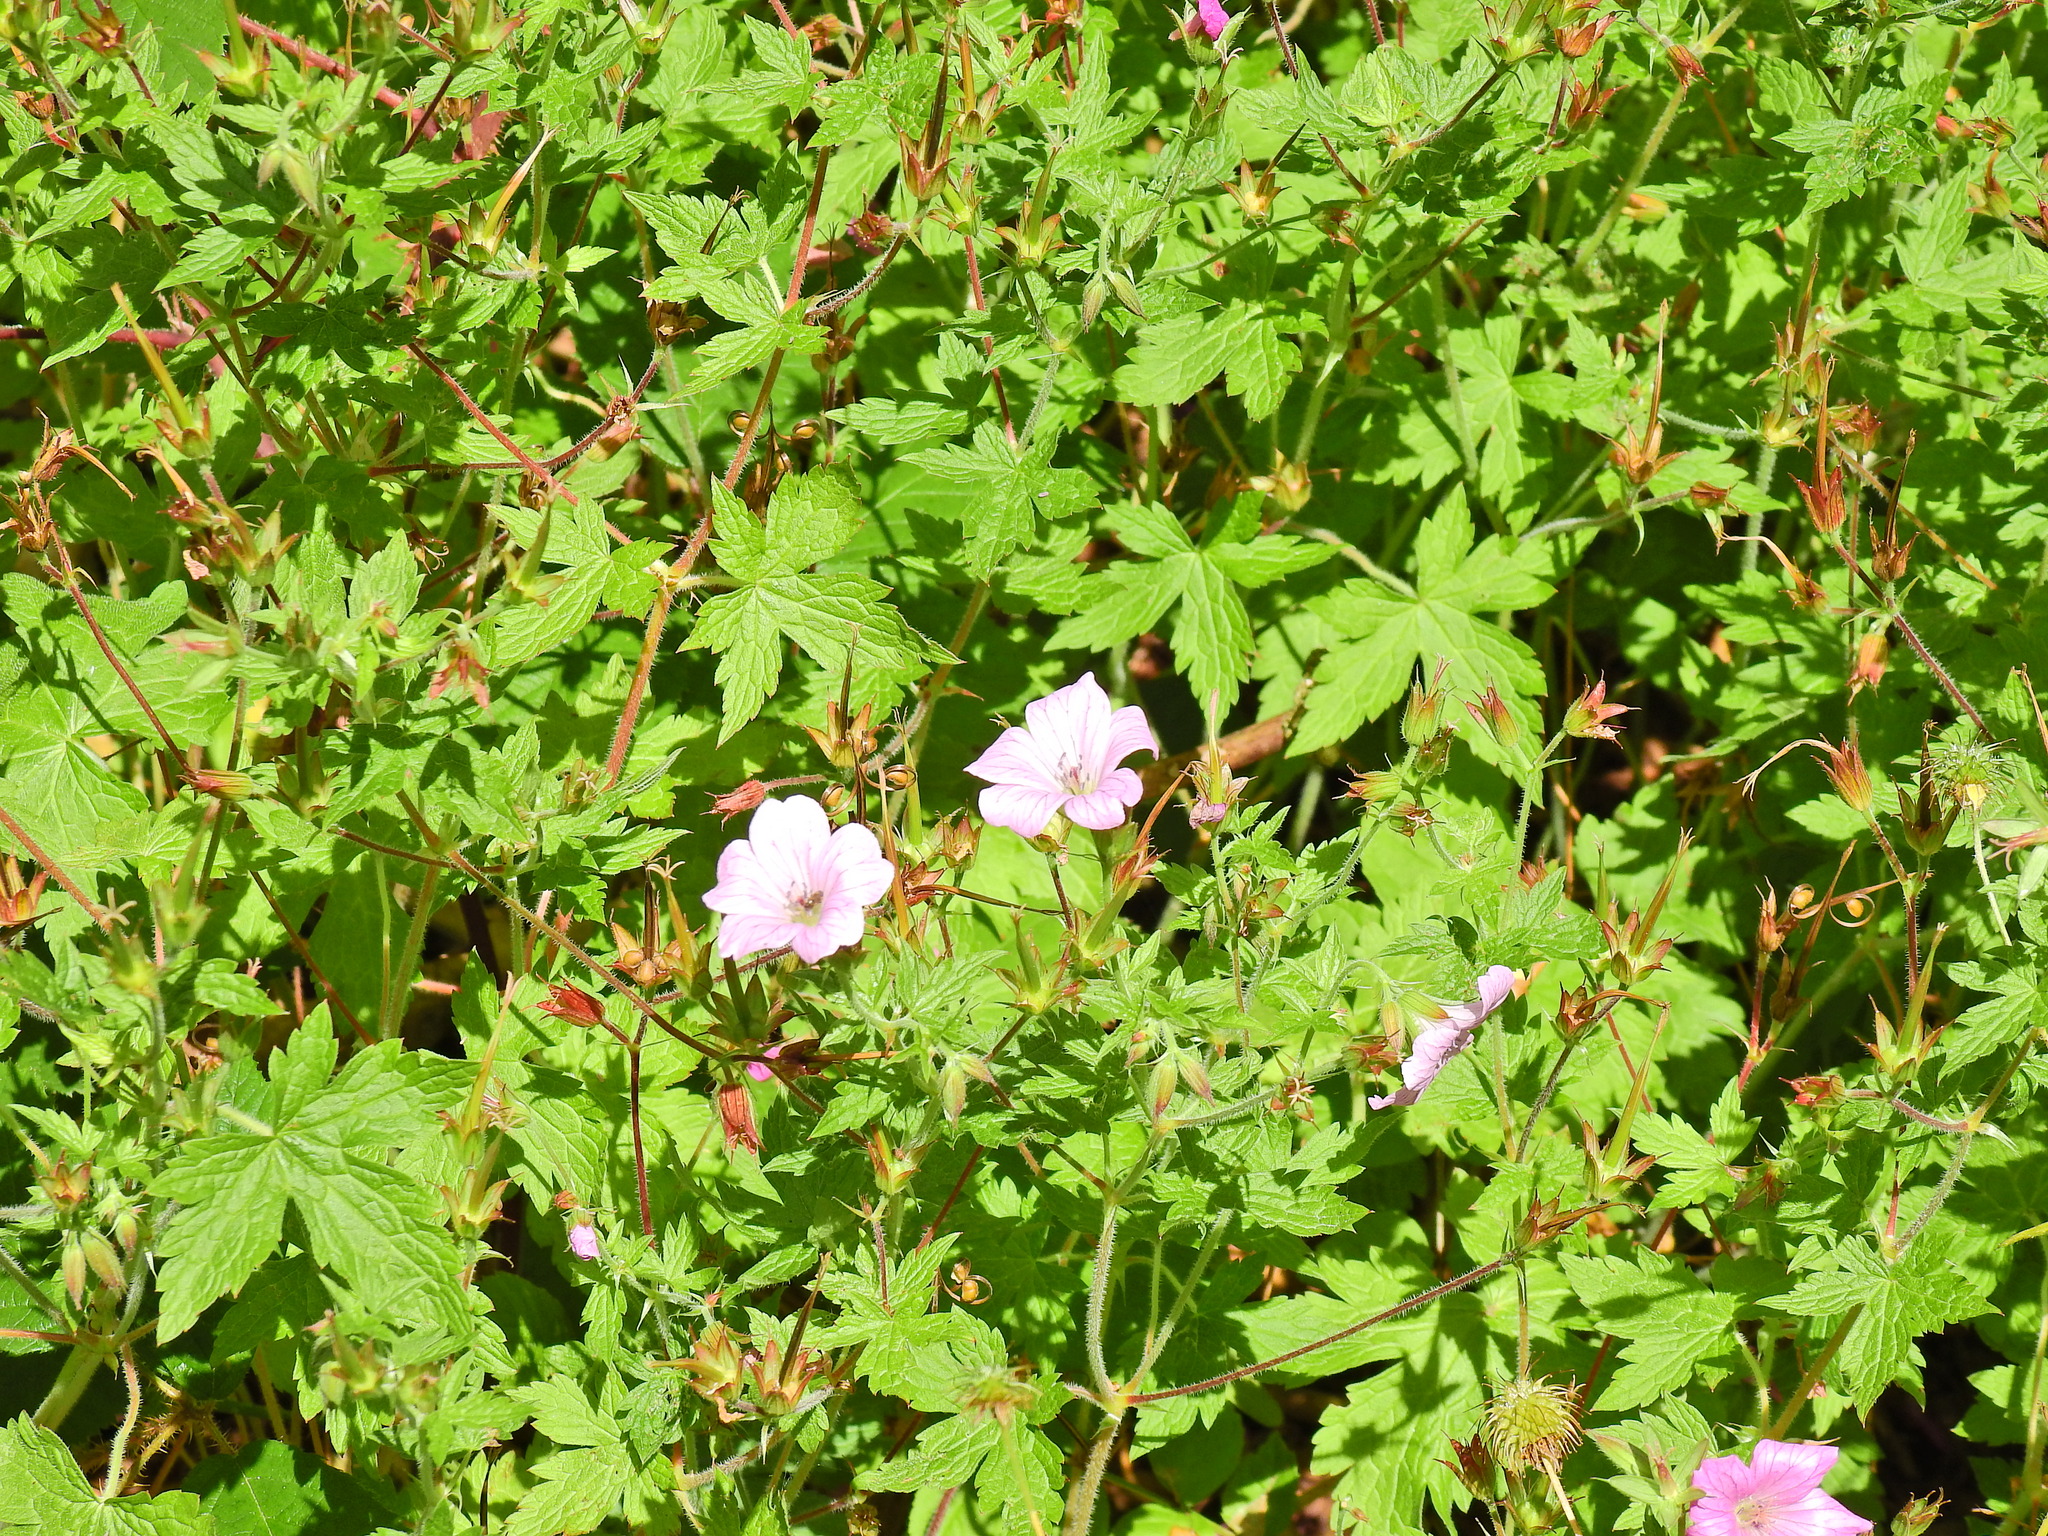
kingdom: Plantae
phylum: Tracheophyta
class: Magnoliopsida
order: Geraniales
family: Geraniaceae
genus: Geranium
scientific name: Geranium oxonianum
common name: Druce's crane's-bill
